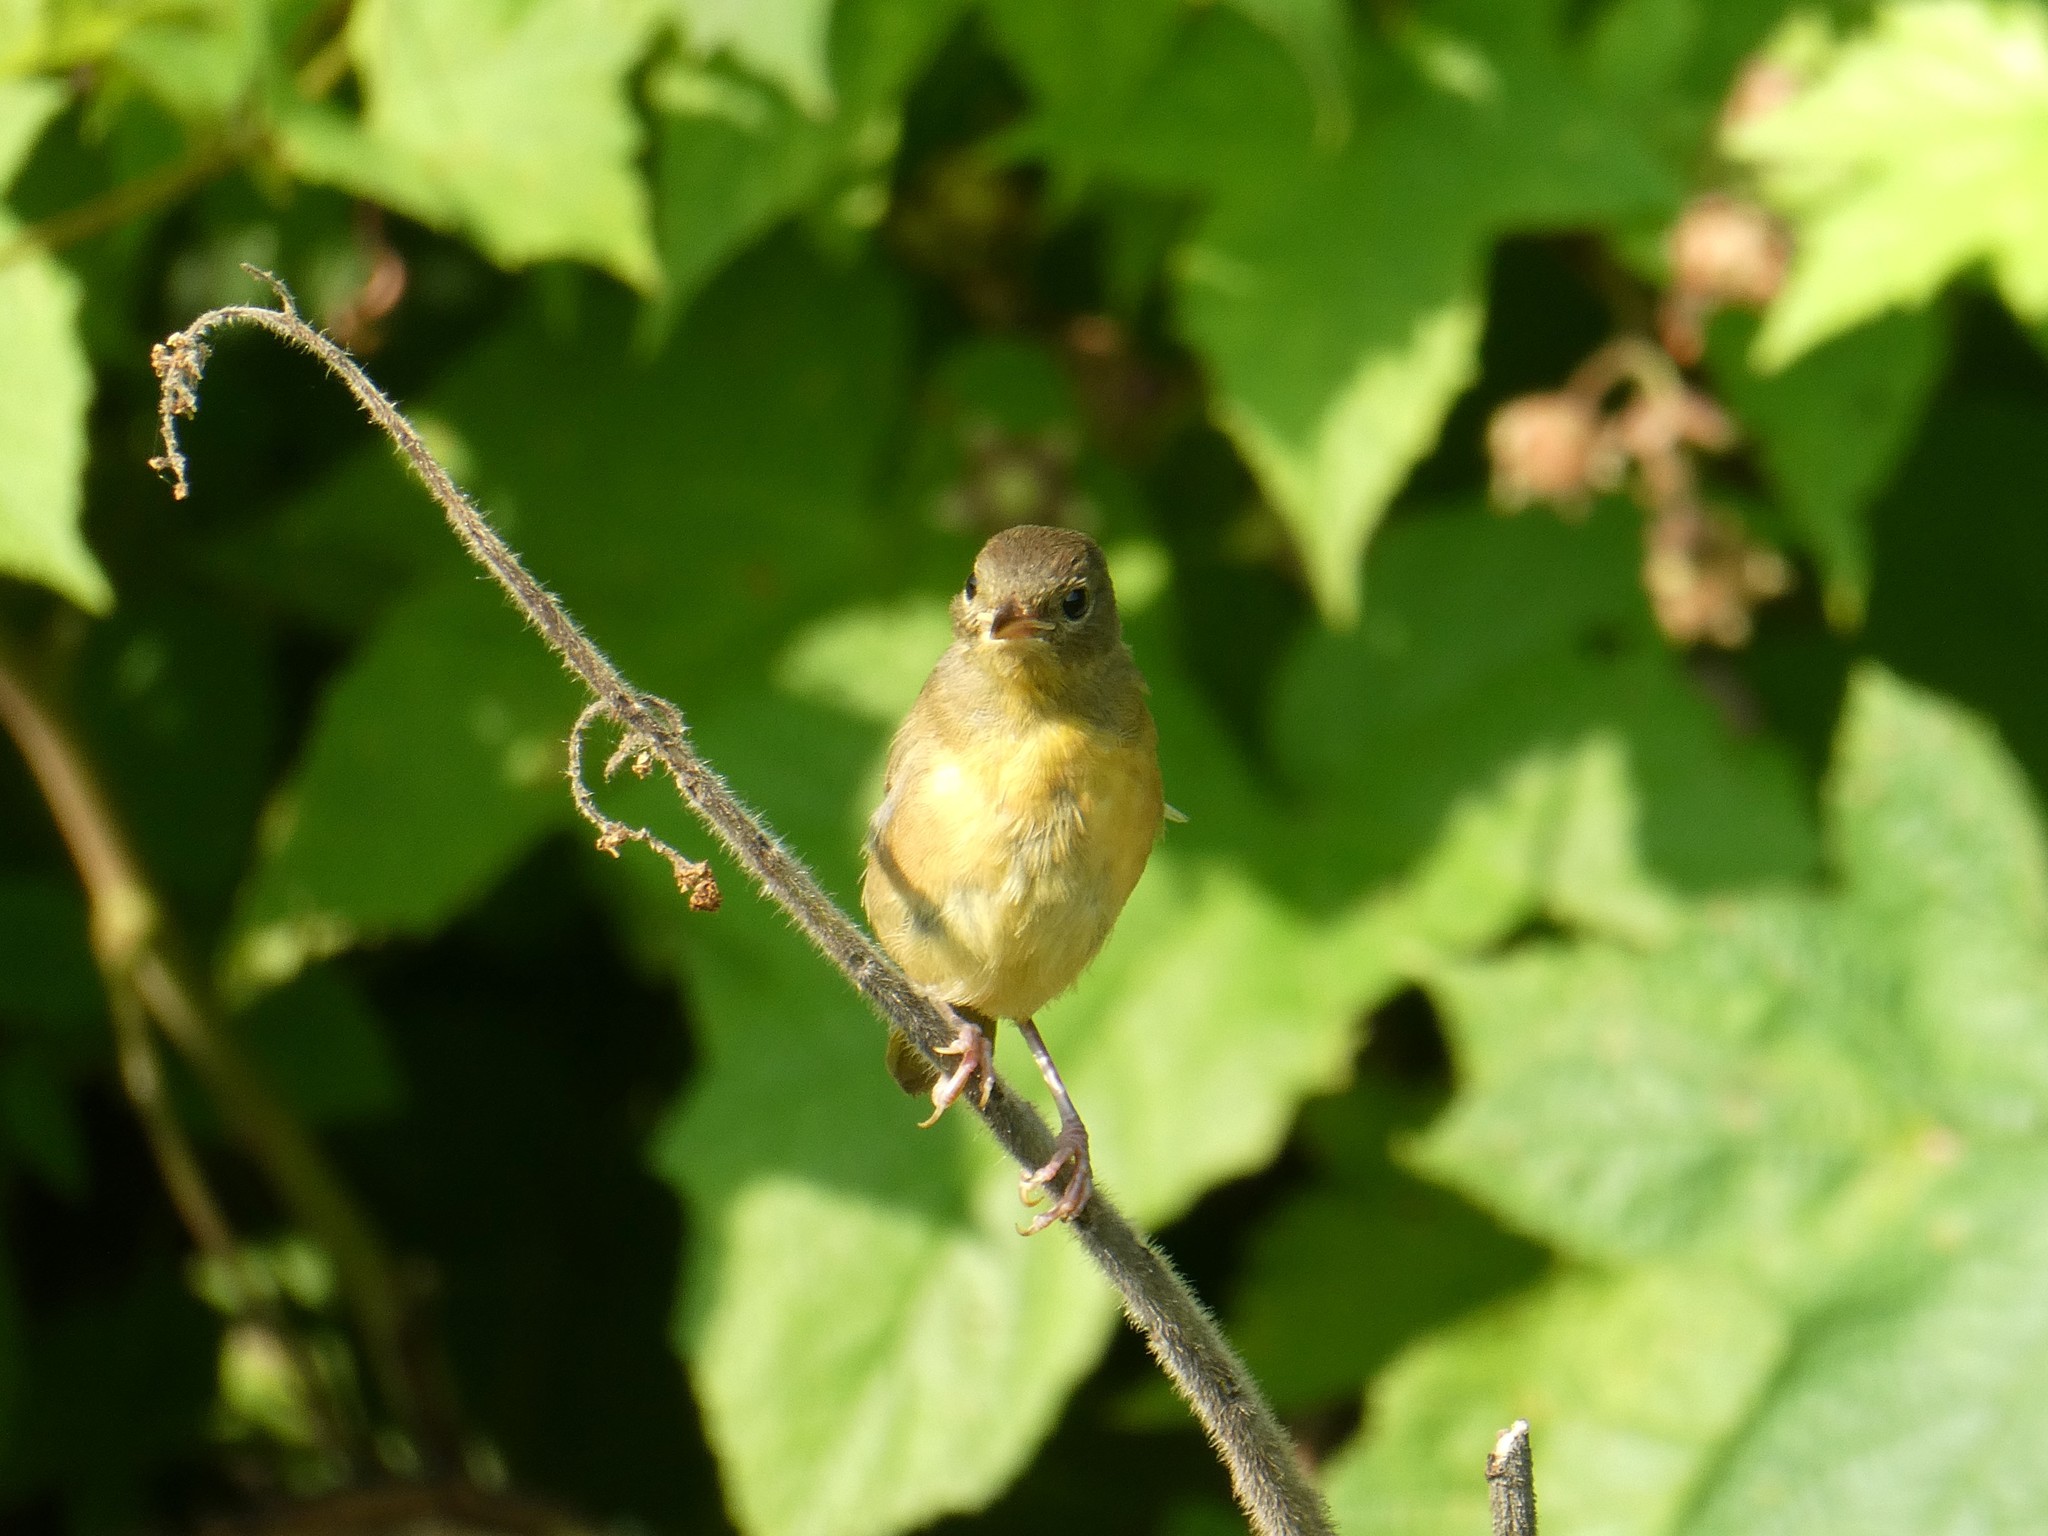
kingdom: Animalia
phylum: Chordata
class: Aves
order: Passeriformes
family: Parulidae
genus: Geothlypis
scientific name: Geothlypis trichas
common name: Common yellowthroat
